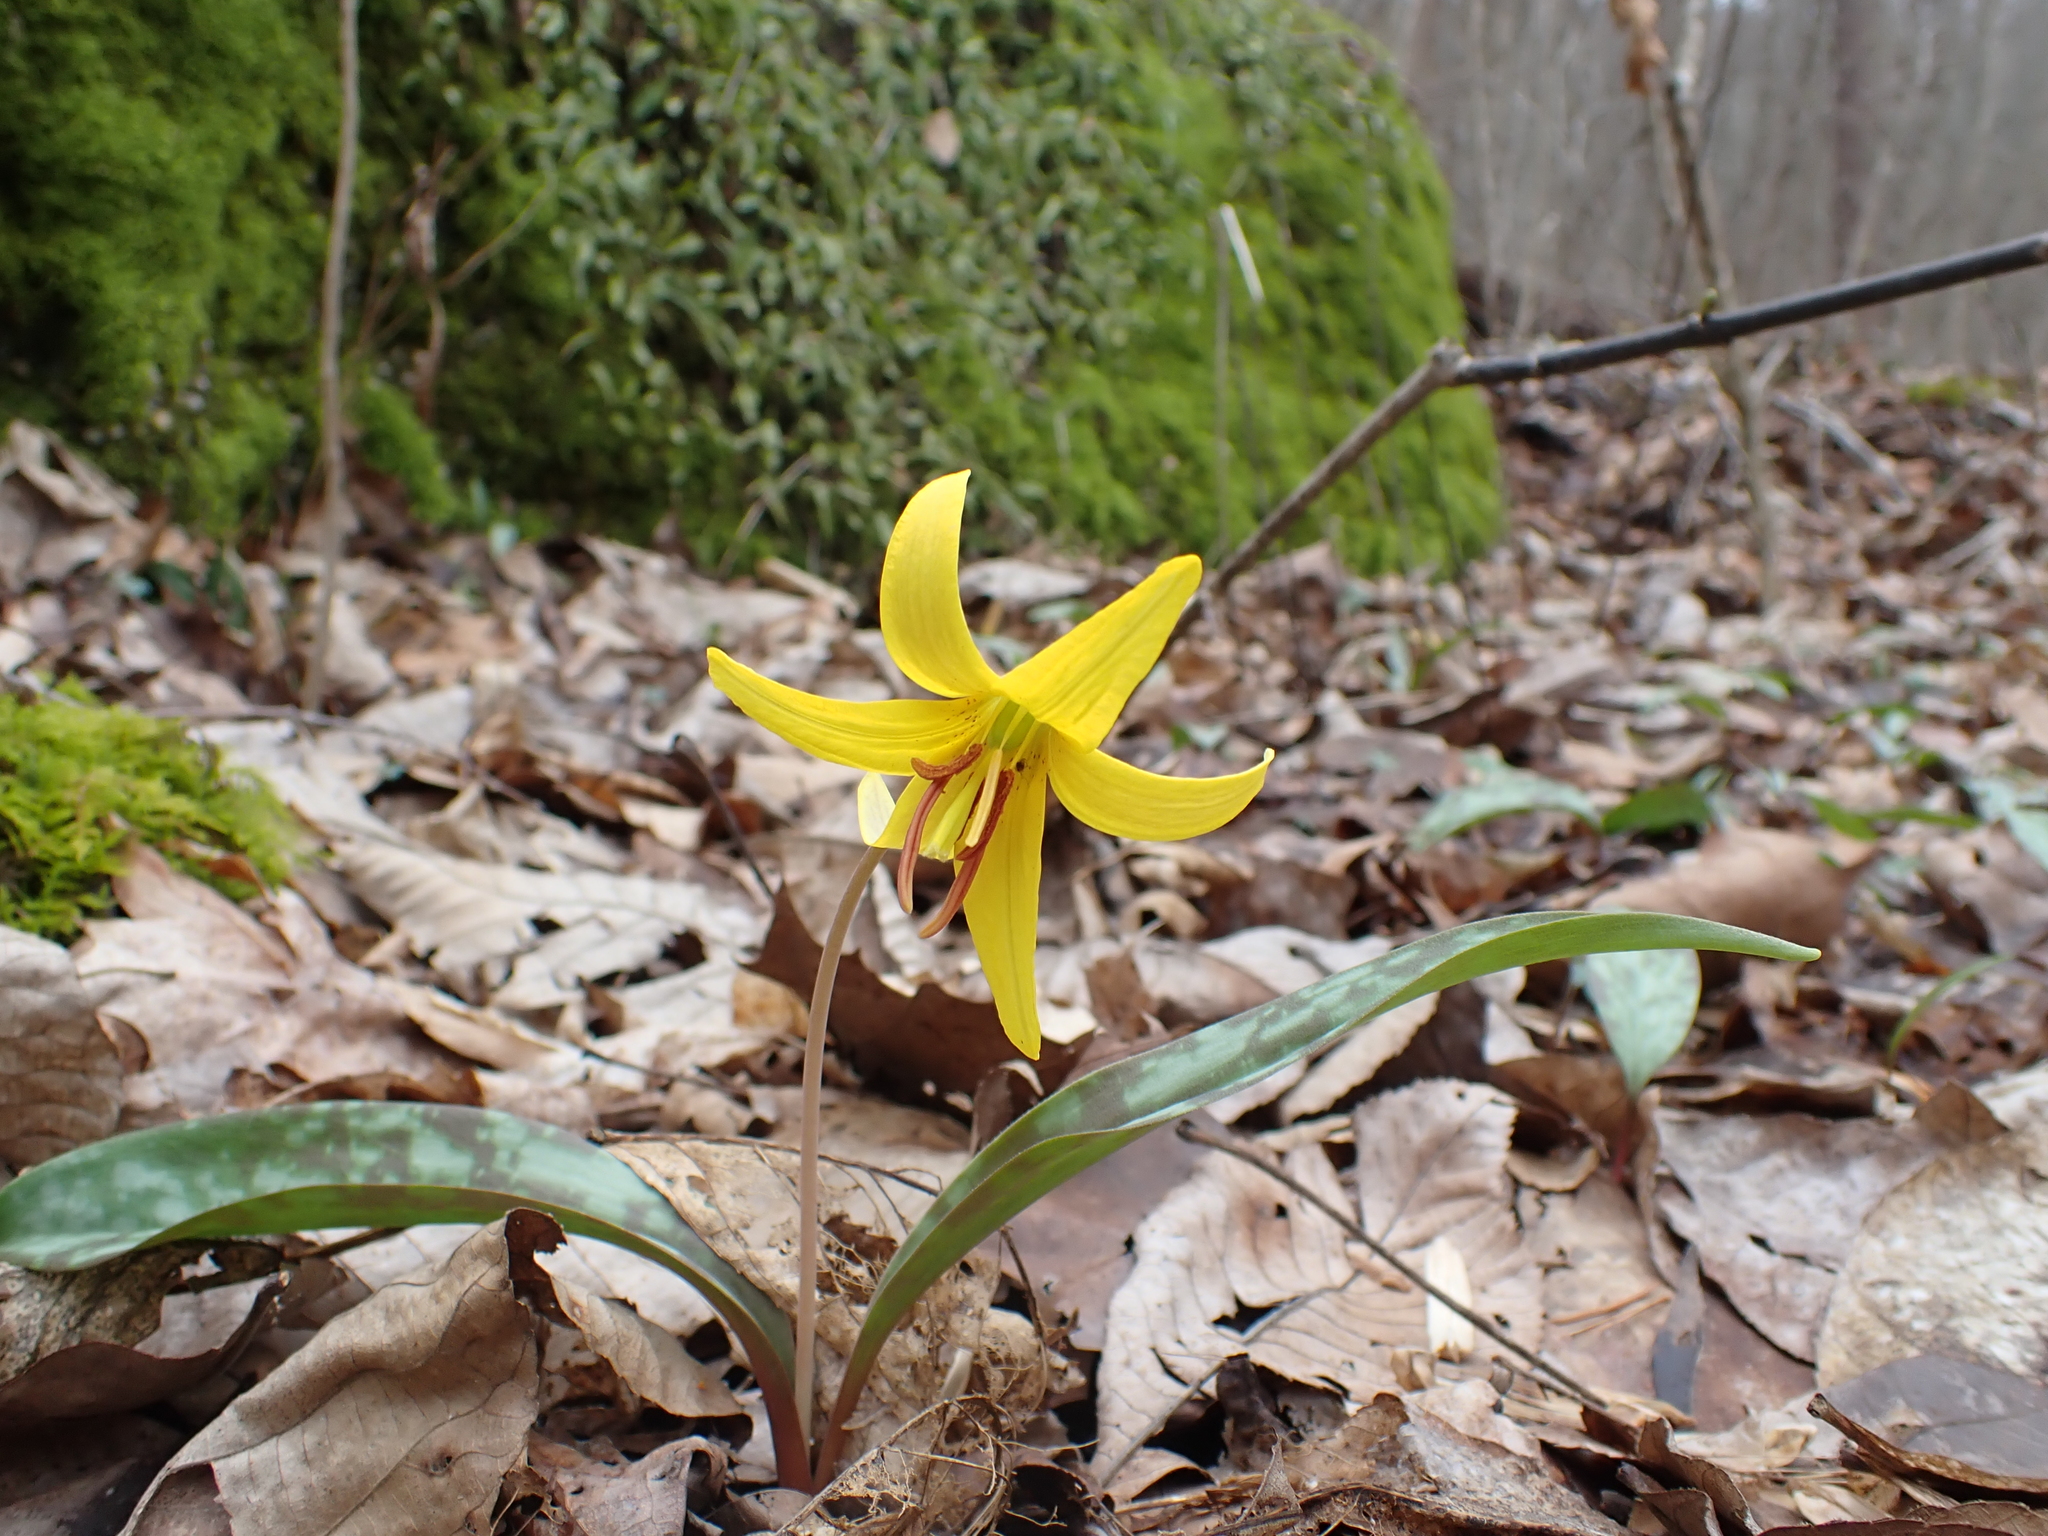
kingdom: Plantae
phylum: Tracheophyta
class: Liliopsida
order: Liliales
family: Liliaceae
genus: Erythronium
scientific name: Erythronium americanum
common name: Yellow adder's-tongue
